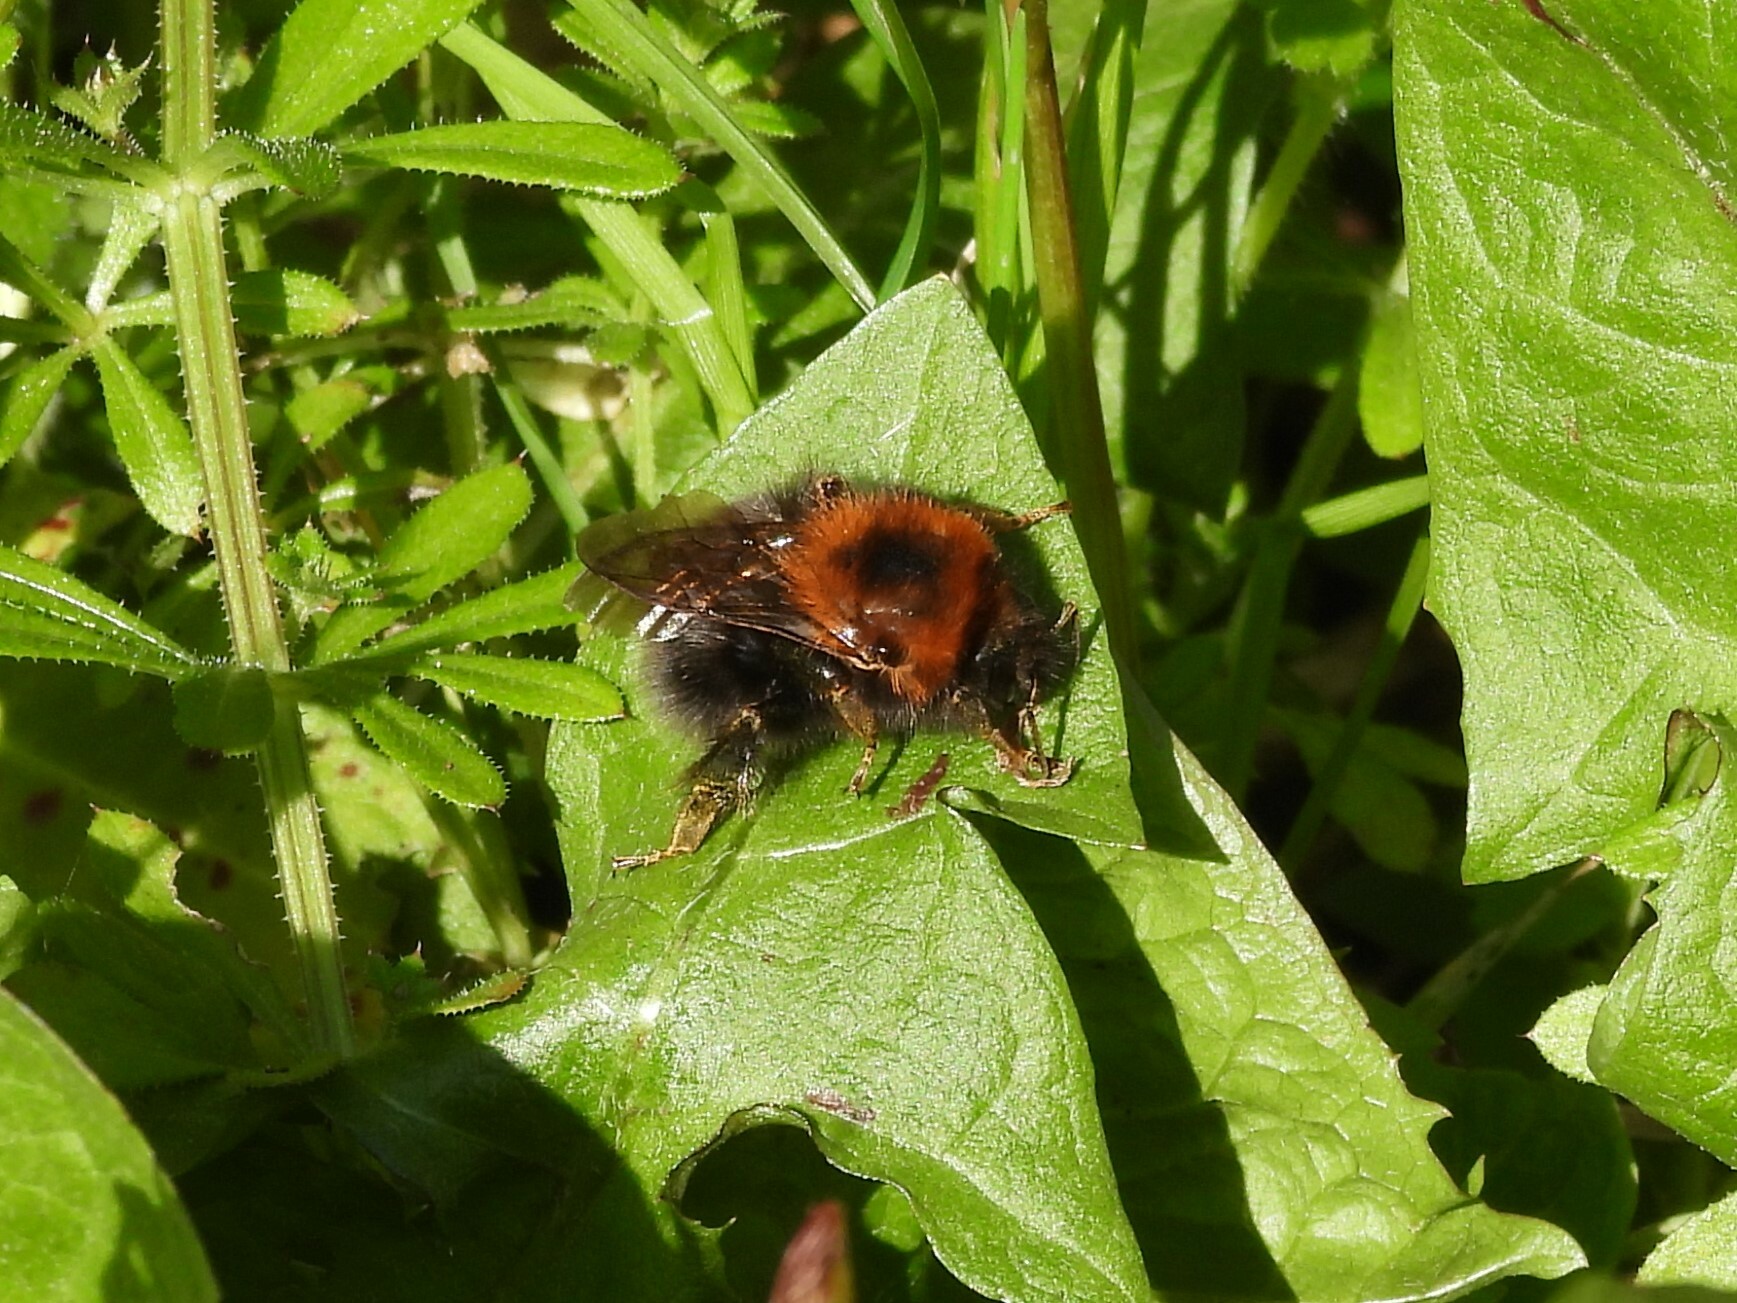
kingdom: Animalia
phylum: Arthropoda
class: Insecta
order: Hymenoptera
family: Apidae
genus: Bombus
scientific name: Bombus hypnorum
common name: New garden bumblebee
